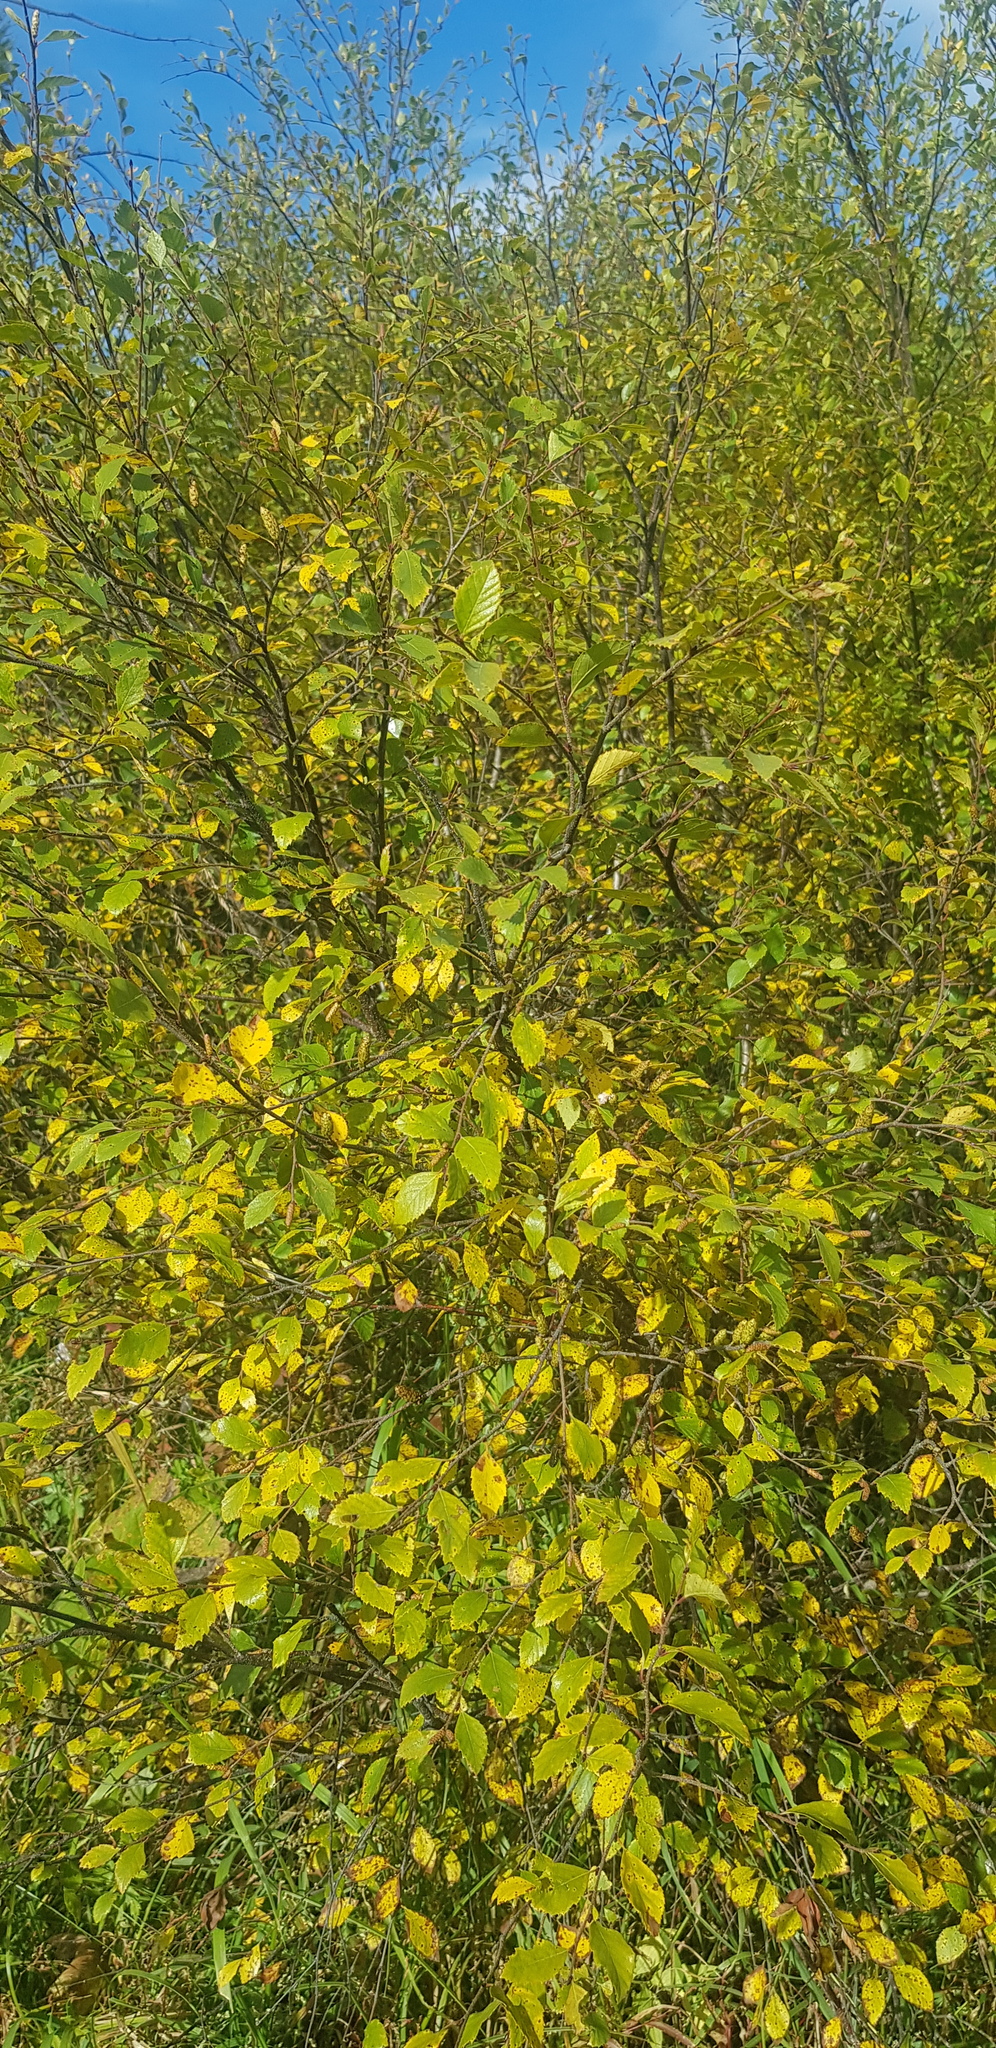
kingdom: Plantae
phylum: Tracheophyta
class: Magnoliopsida
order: Rosales
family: Ulmaceae
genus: Ulmus
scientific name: Ulmus davidiana
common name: Japanese elm
